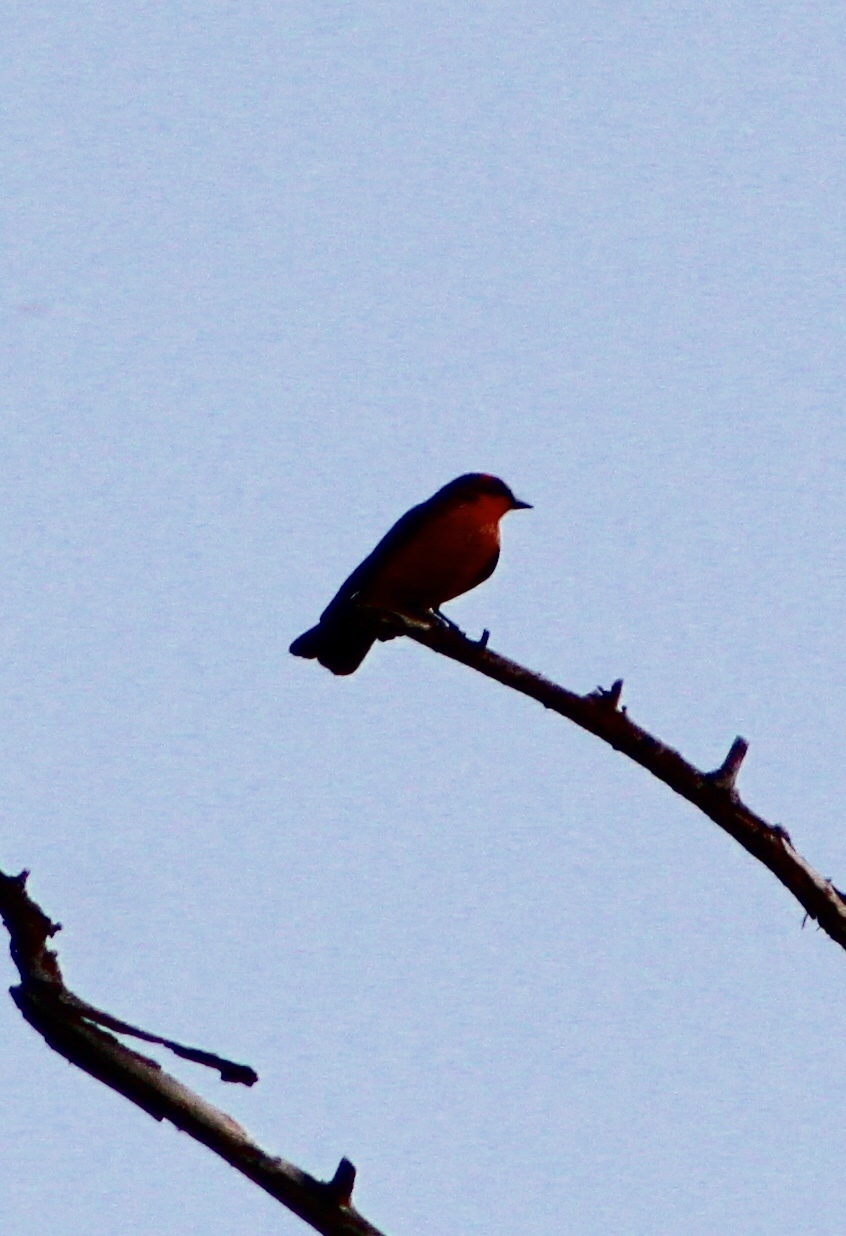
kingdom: Animalia
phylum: Chordata
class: Aves
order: Passeriformes
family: Tyrannidae
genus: Pyrocephalus
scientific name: Pyrocephalus rubinus
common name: Vermilion flycatcher
